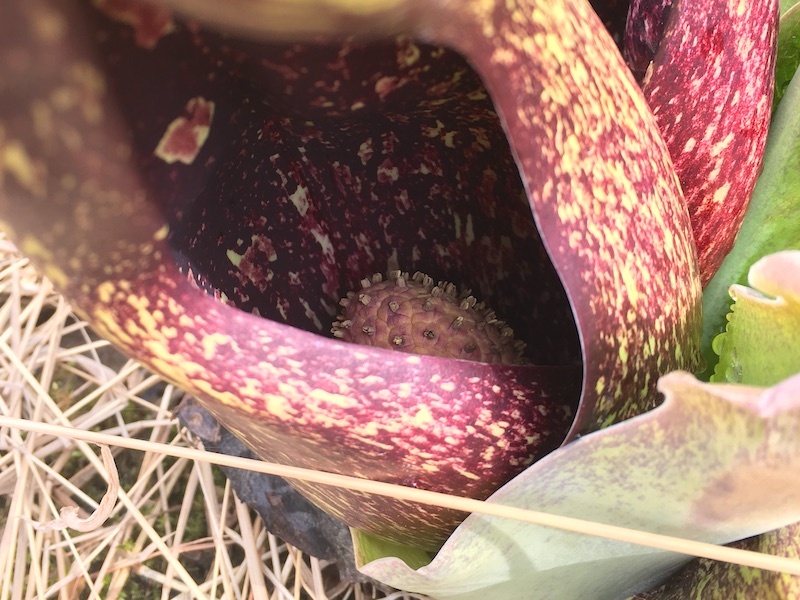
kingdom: Plantae
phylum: Tracheophyta
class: Liliopsida
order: Alismatales
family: Araceae
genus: Symplocarpus
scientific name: Symplocarpus foetidus
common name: Eastern skunk cabbage
